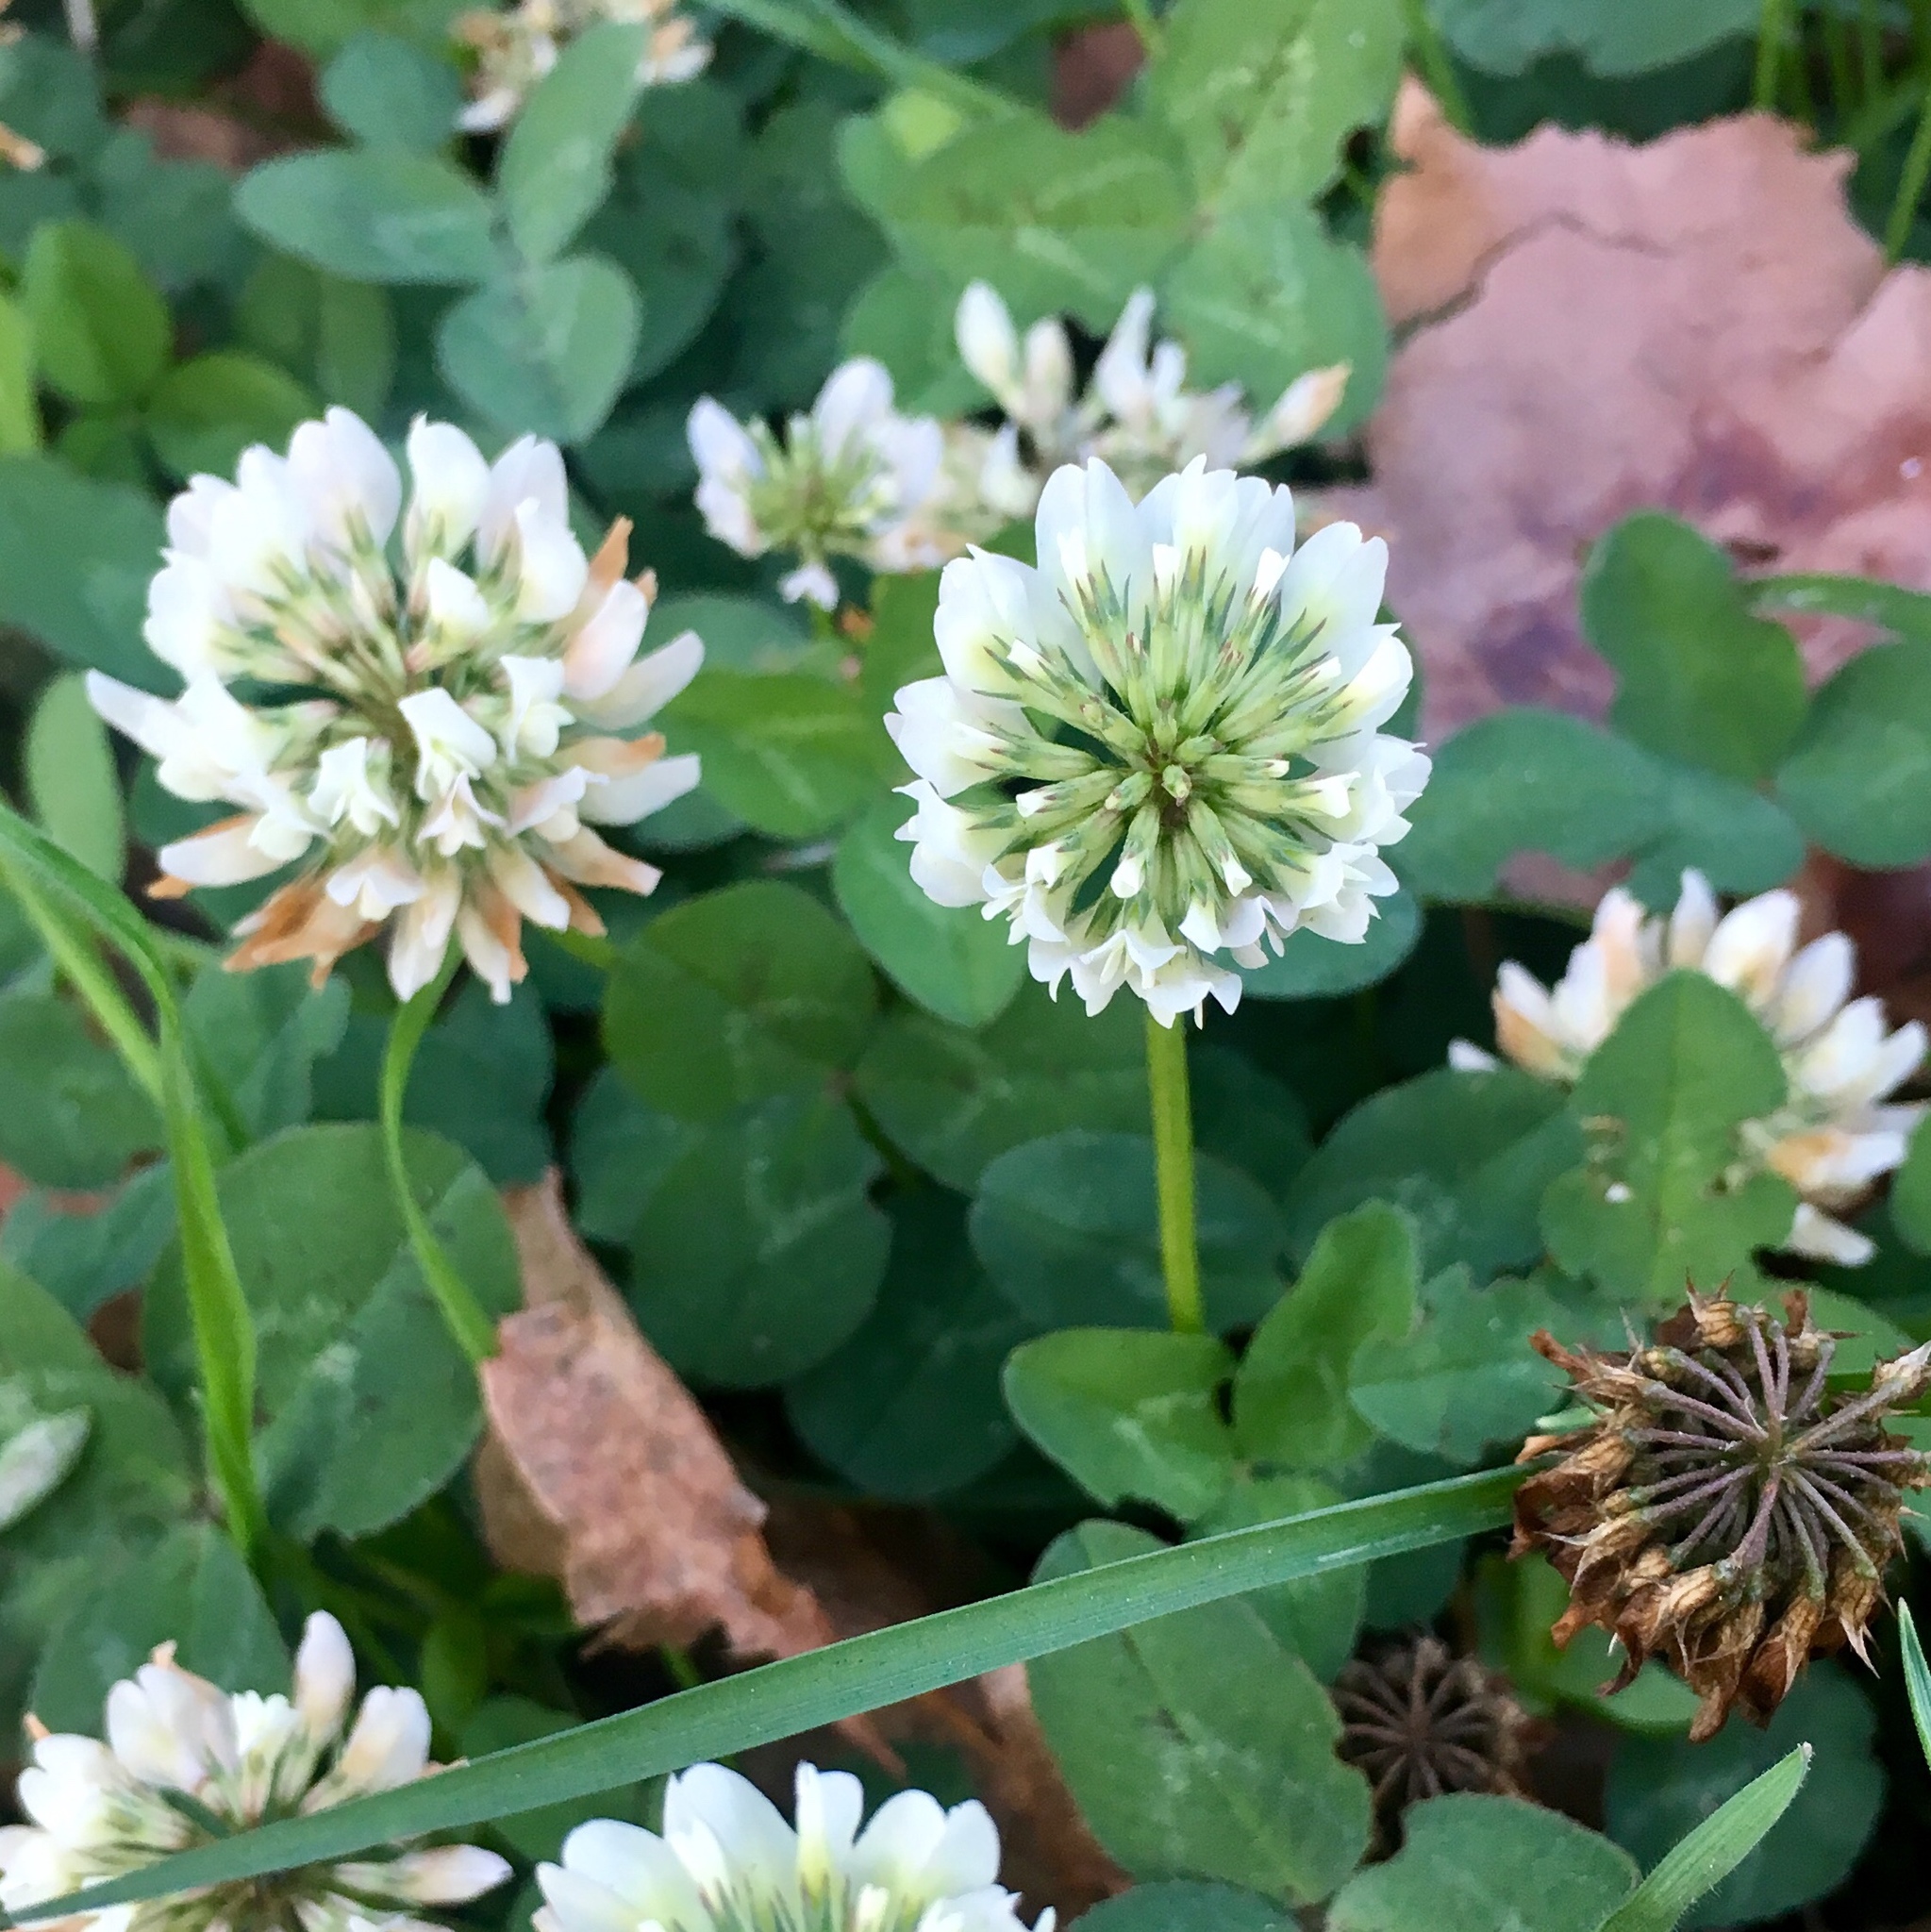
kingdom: Plantae
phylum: Tracheophyta
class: Magnoliopsida
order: Fabales
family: Fabaceae
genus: Trifolium
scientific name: Trifolium repens
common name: White clover
